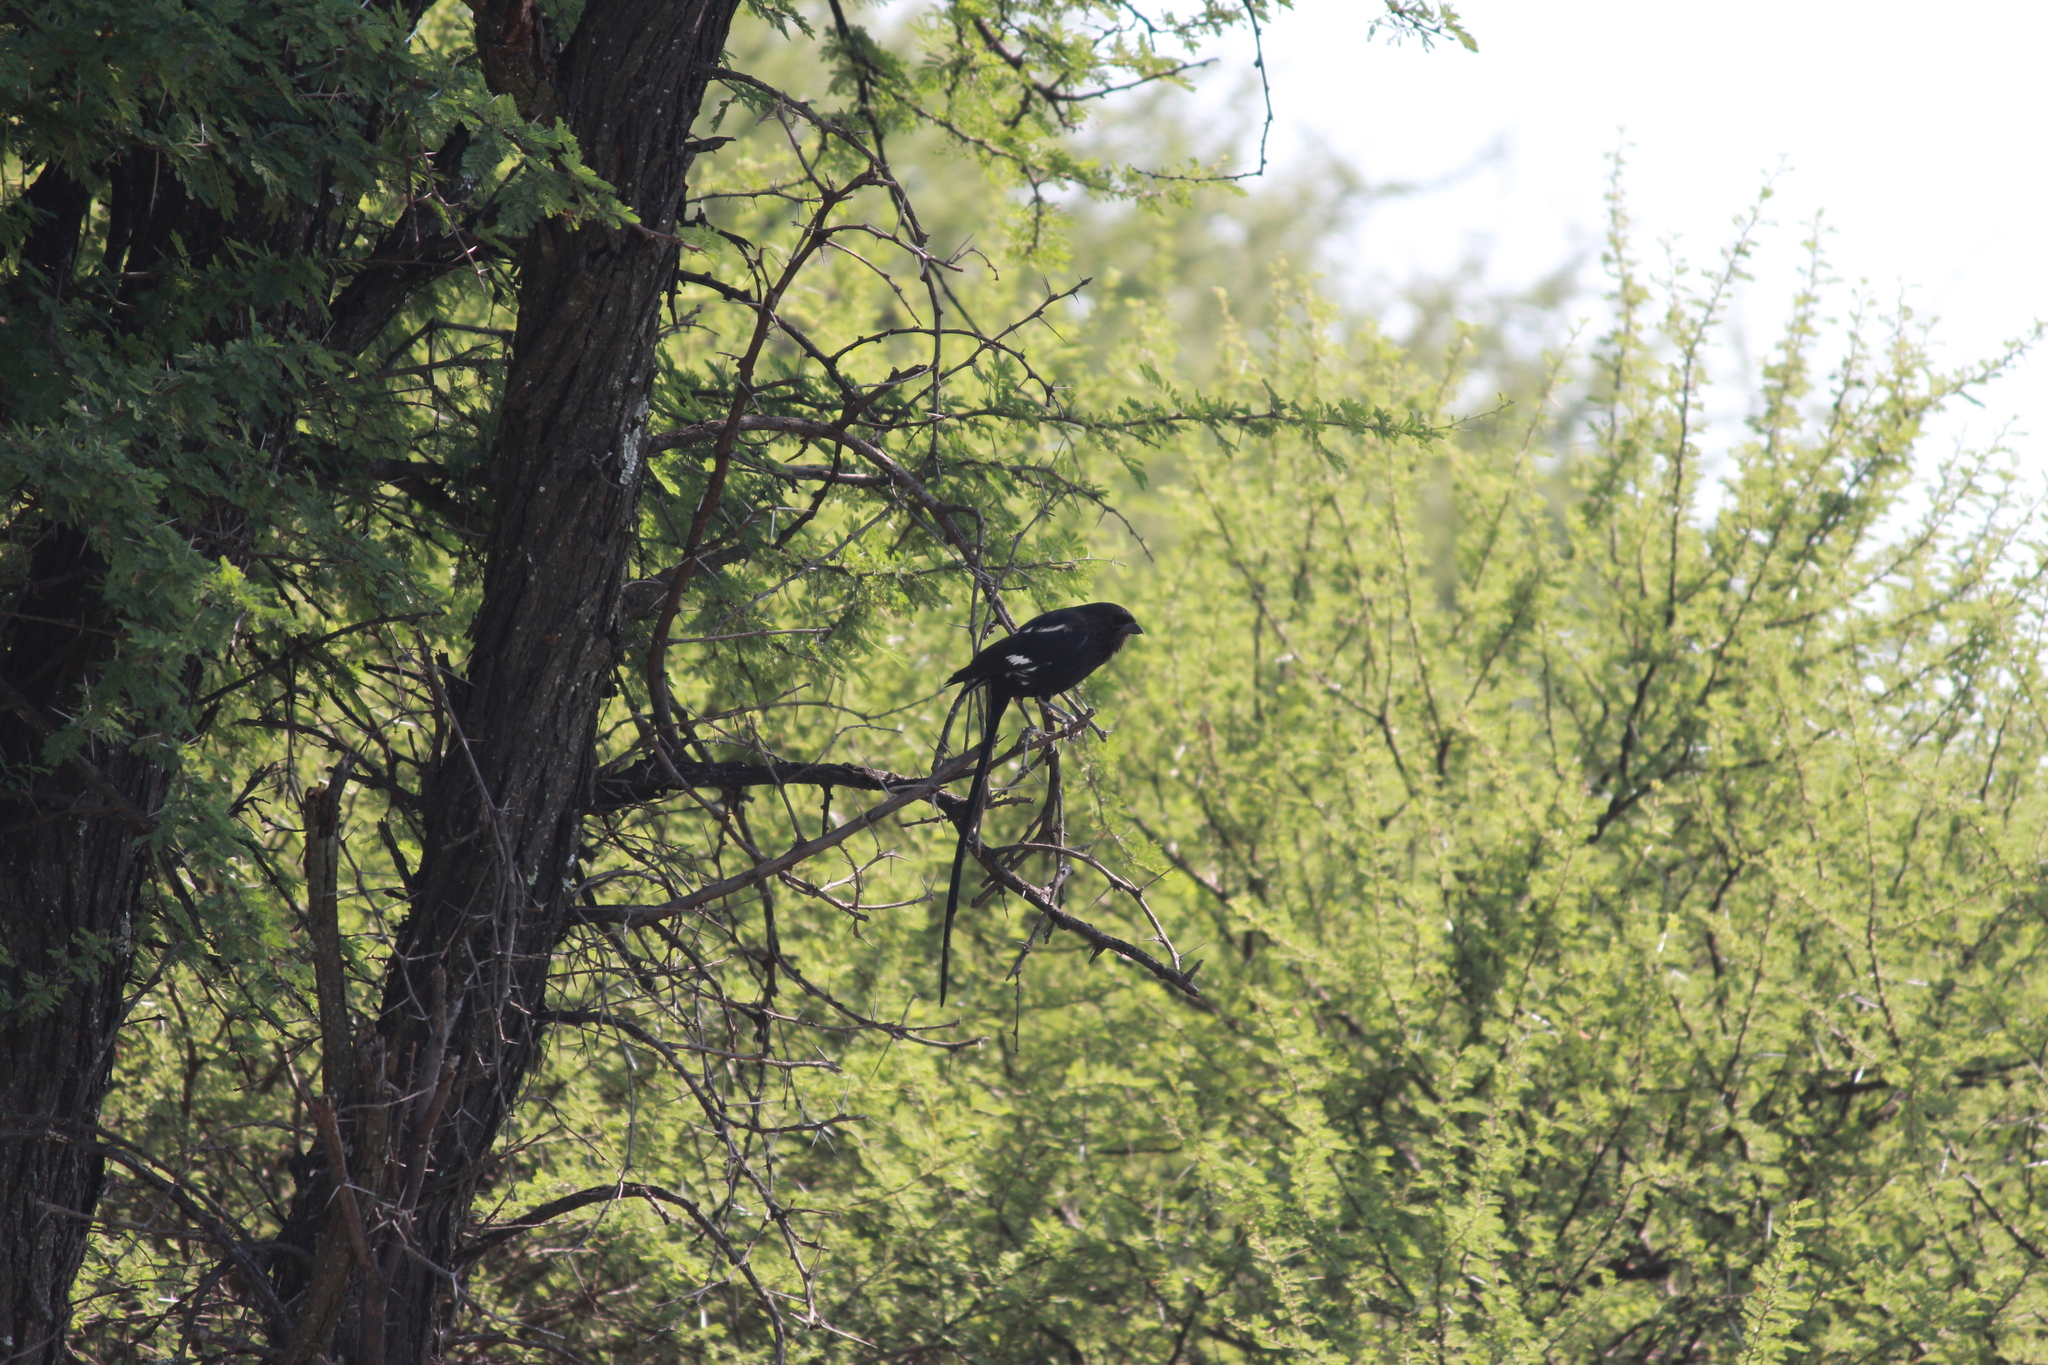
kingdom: Animalia
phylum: Chordata
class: Aves
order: Passeriformes
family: Laniidae
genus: Urolestes
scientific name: Urolestes melanoleucus
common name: Magpie shrike
